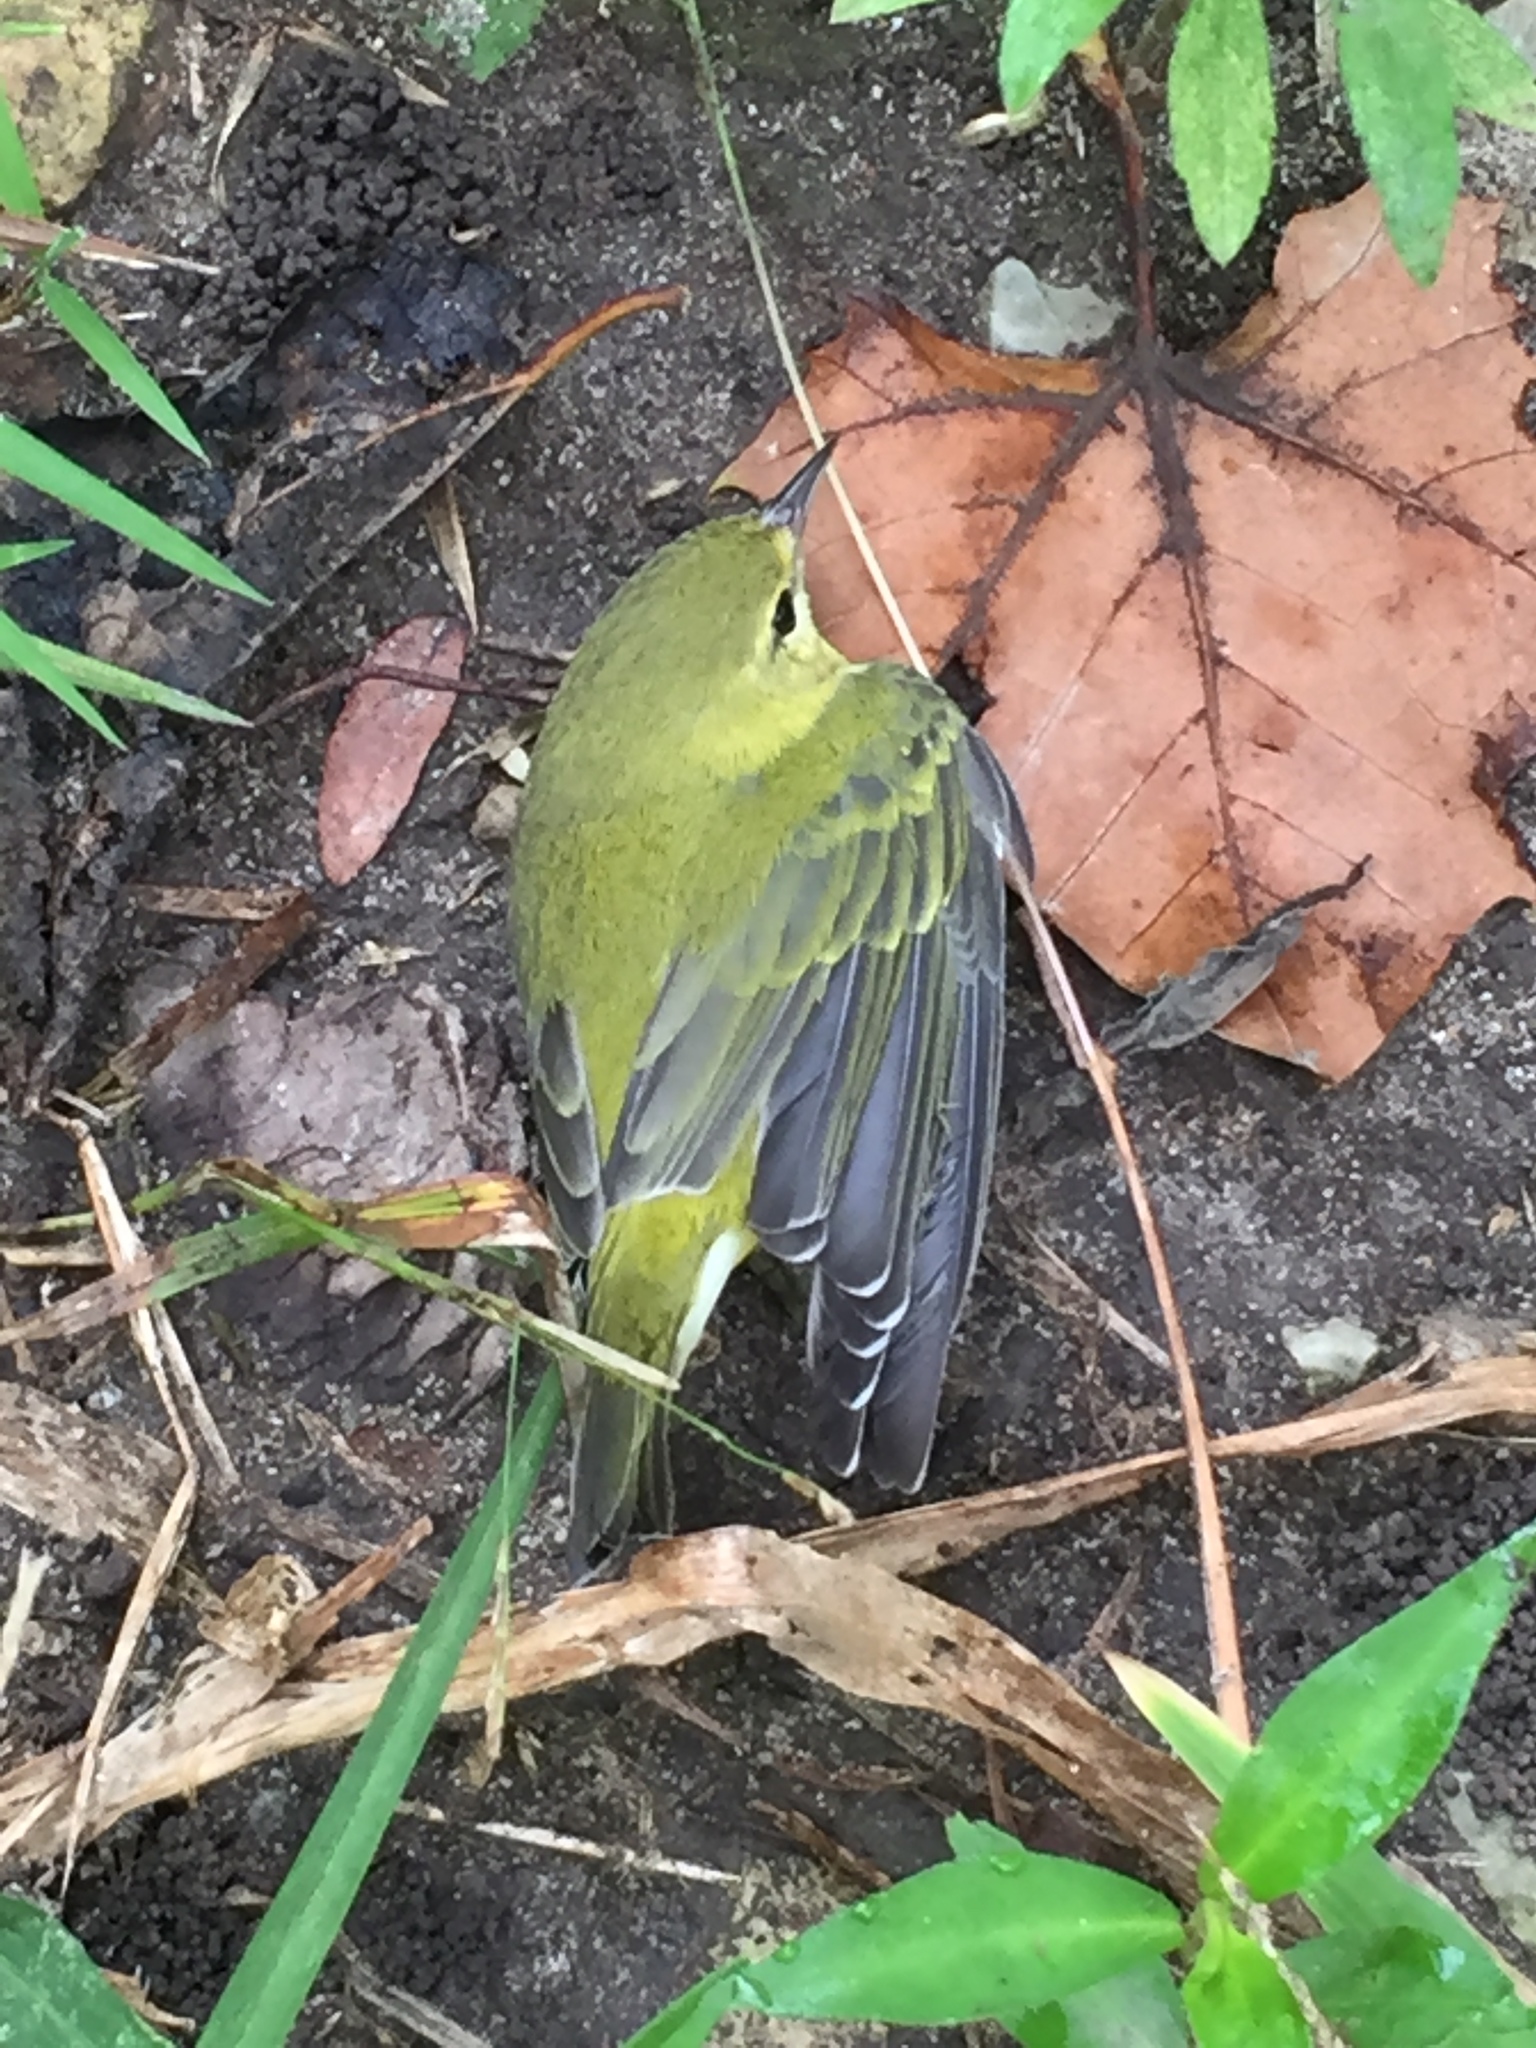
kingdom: Animalia
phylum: Chordata
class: Aves
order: Passeriformes
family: Parulidae
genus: Leiothlypis
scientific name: Leiothlypis peregrina
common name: Tennessee warbler
